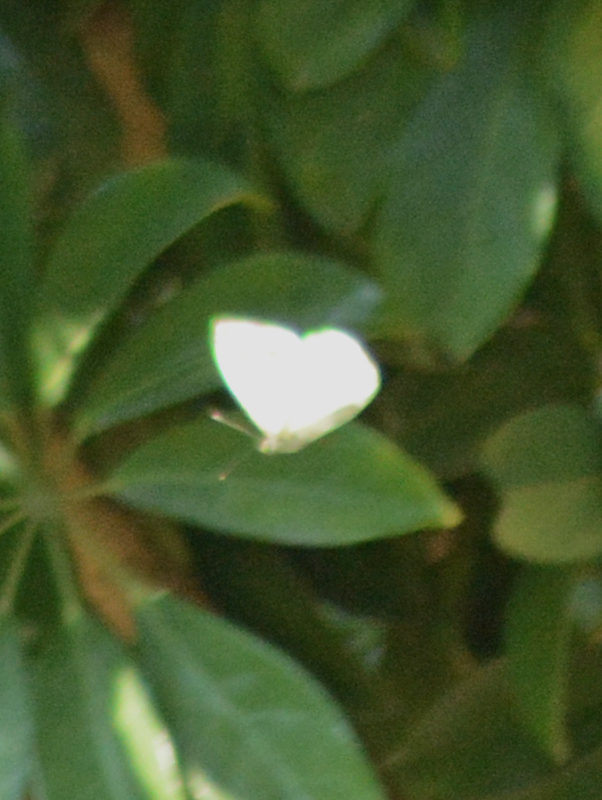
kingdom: Animalia
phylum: Arthropoda
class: Insecta
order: Lepidoptera
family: Pieridae
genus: Leptophobia
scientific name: Leptophobia aripa
